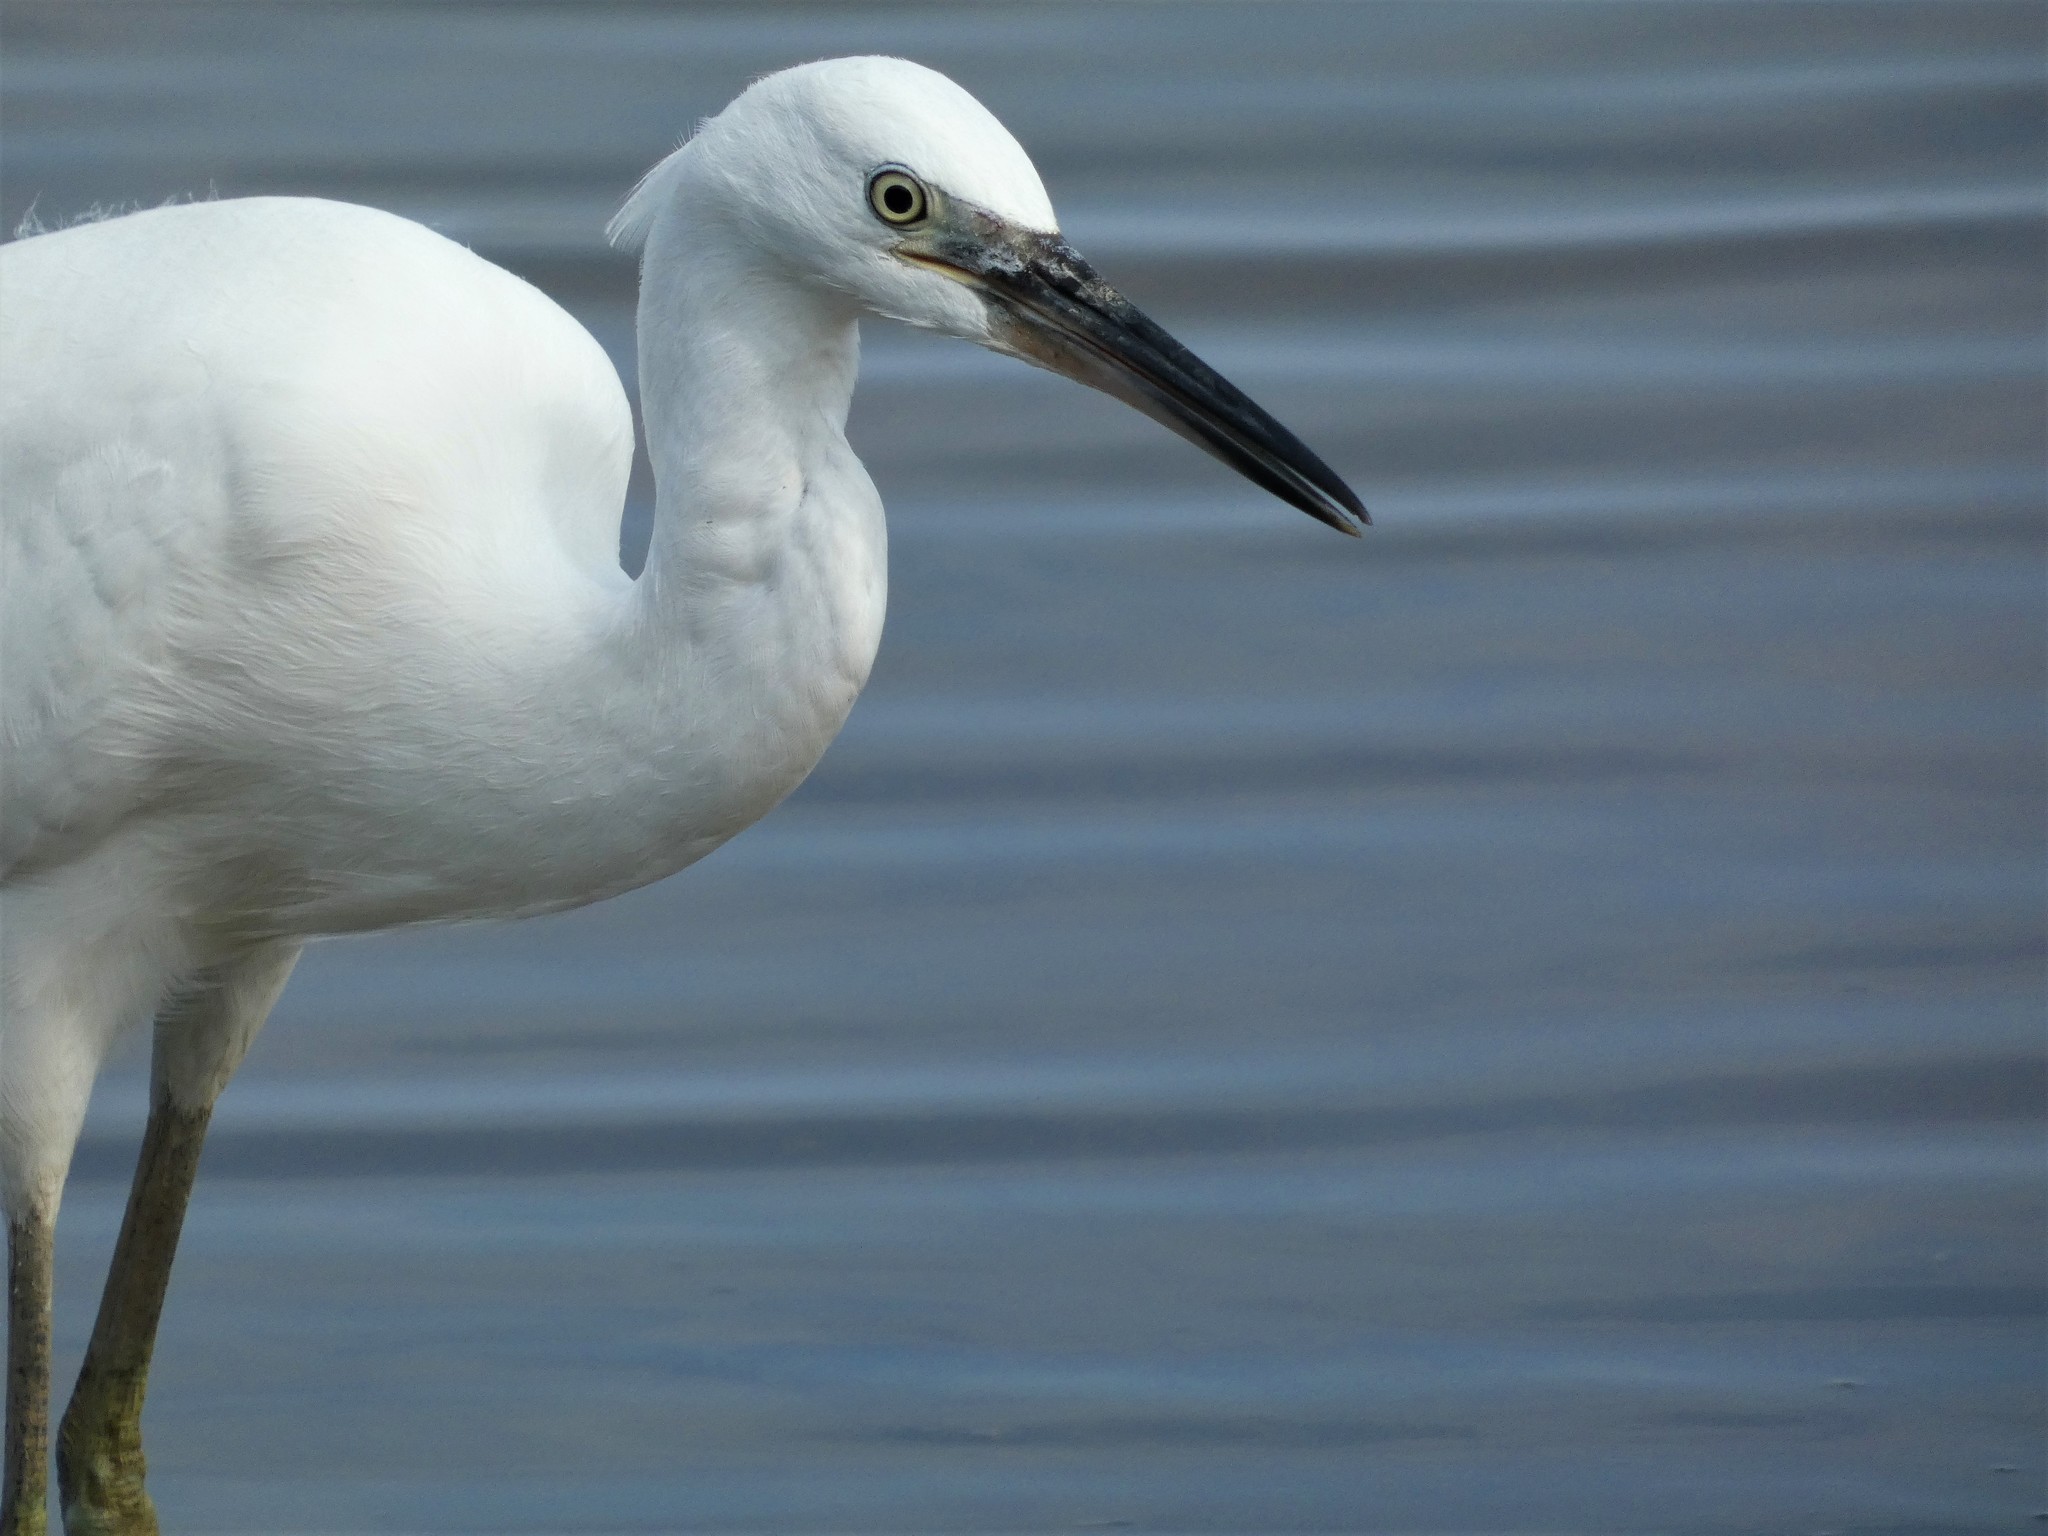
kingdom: Animalia
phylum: Chordata
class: Aves
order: Pelecaniformes
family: Ardeidae
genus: Egretta
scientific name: Egretta garzetta
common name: Little egret
